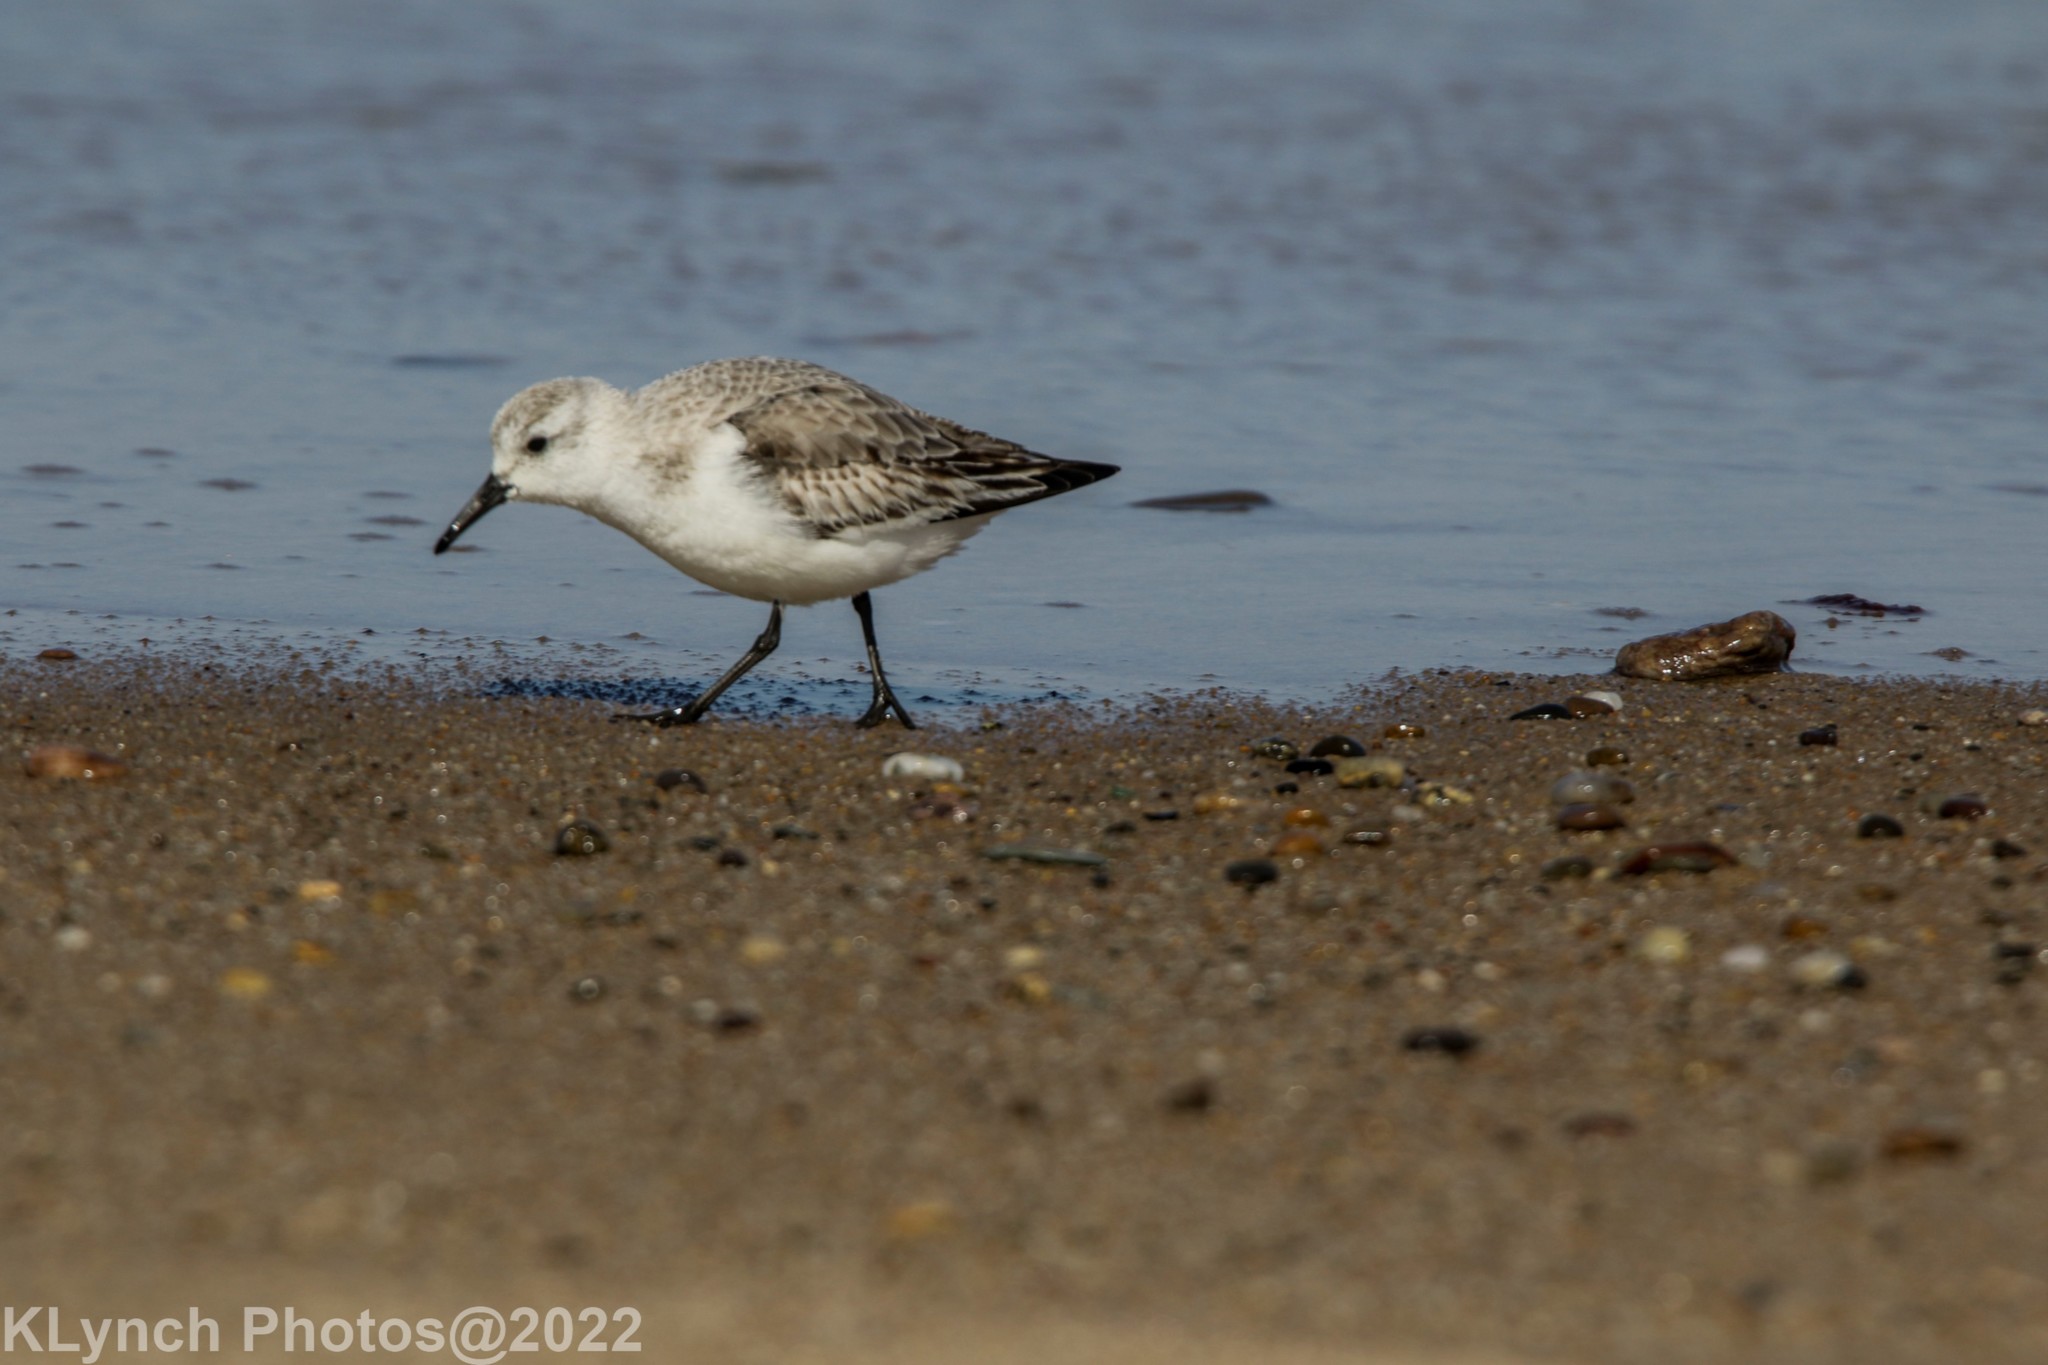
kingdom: Animalia
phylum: Chordata
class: Aves
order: Charadriiformes
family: Scolopacidae
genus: Calidris
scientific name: Calidris alba
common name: Sanderling
